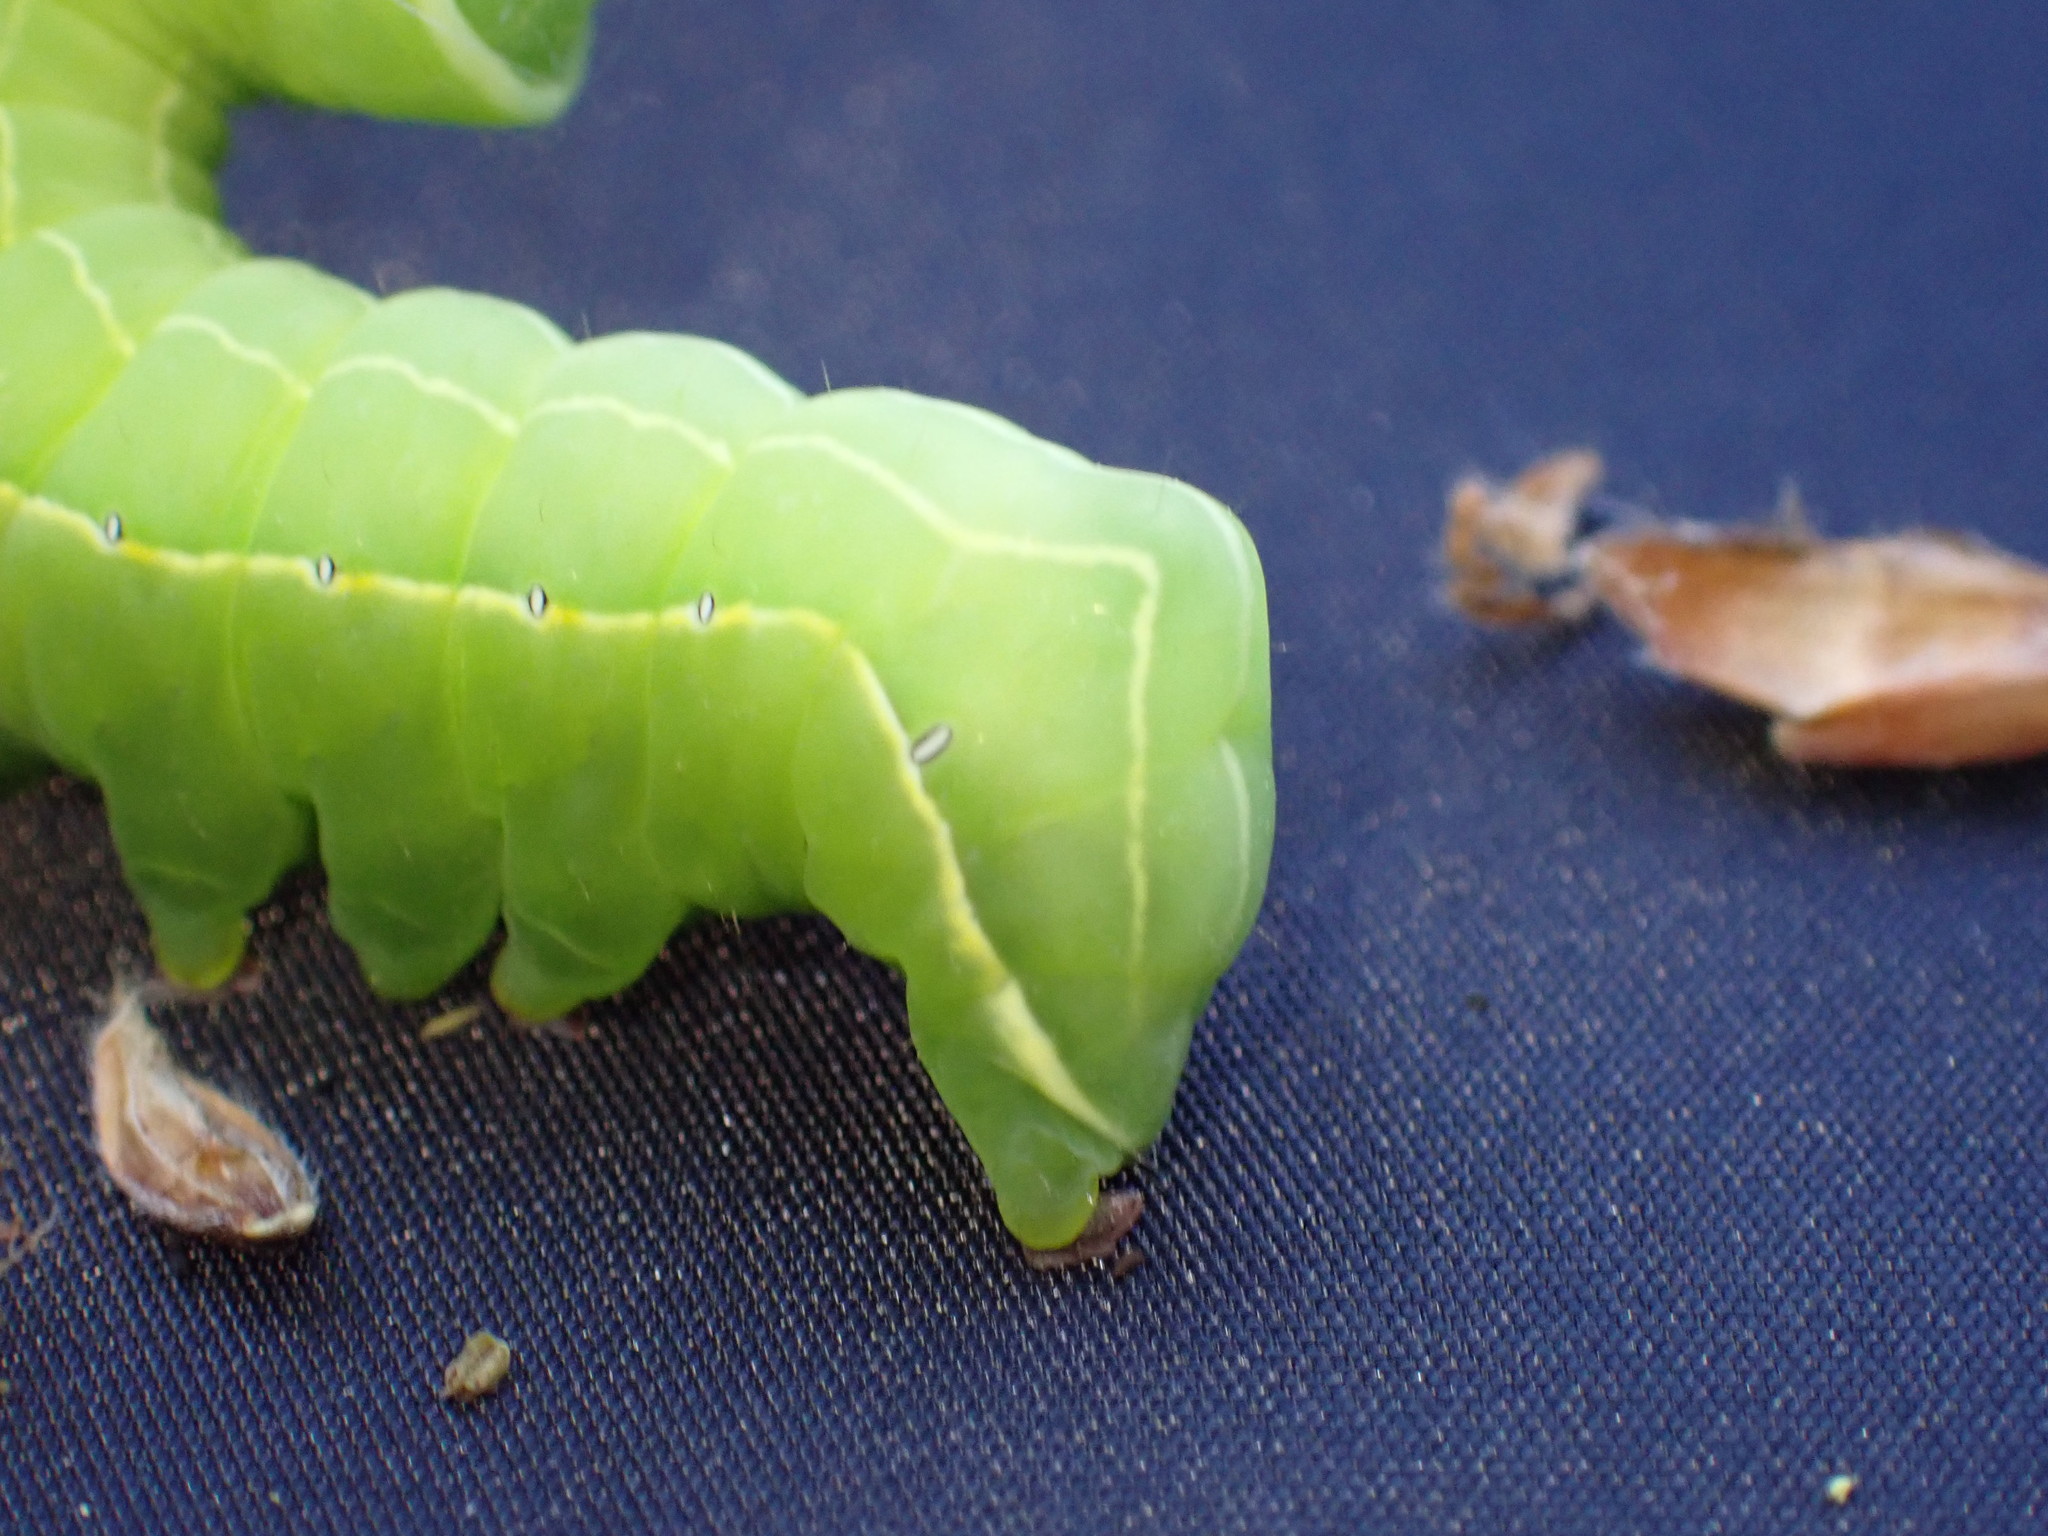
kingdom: Animalia
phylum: Arthropoda
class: Insecta
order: Lepidoptera
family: Noctuidae
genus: Asteroscopus
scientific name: Asteroscopus sphinx
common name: The sprawler
